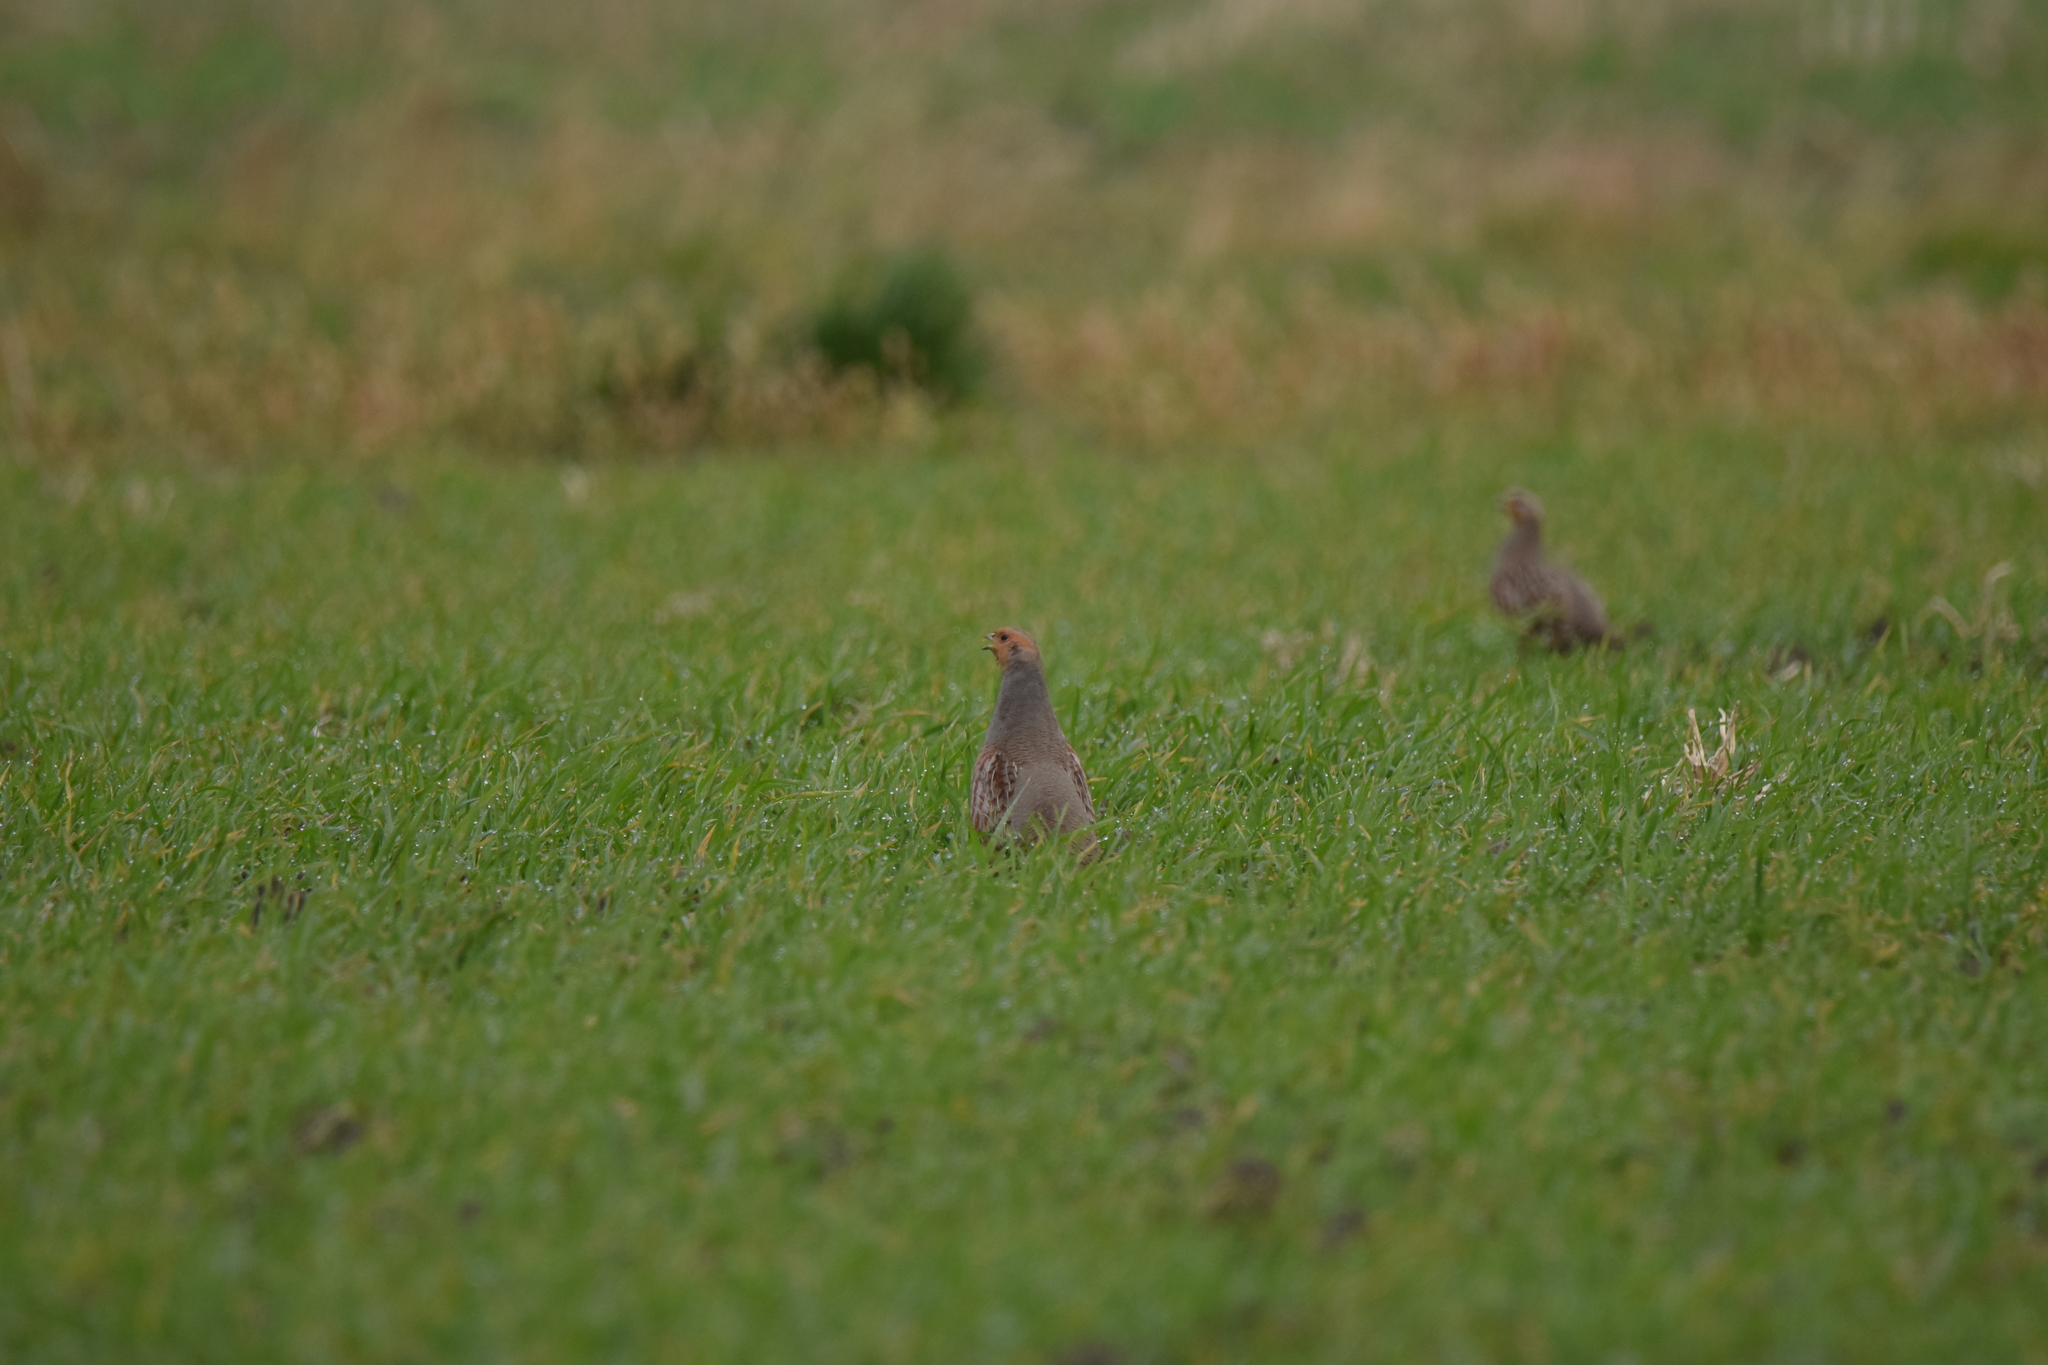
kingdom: Animalia
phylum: Chordata
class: Aves
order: Galliformes
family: Phasianidae
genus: Perdix
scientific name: Perdix perdix
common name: Grey partridge
